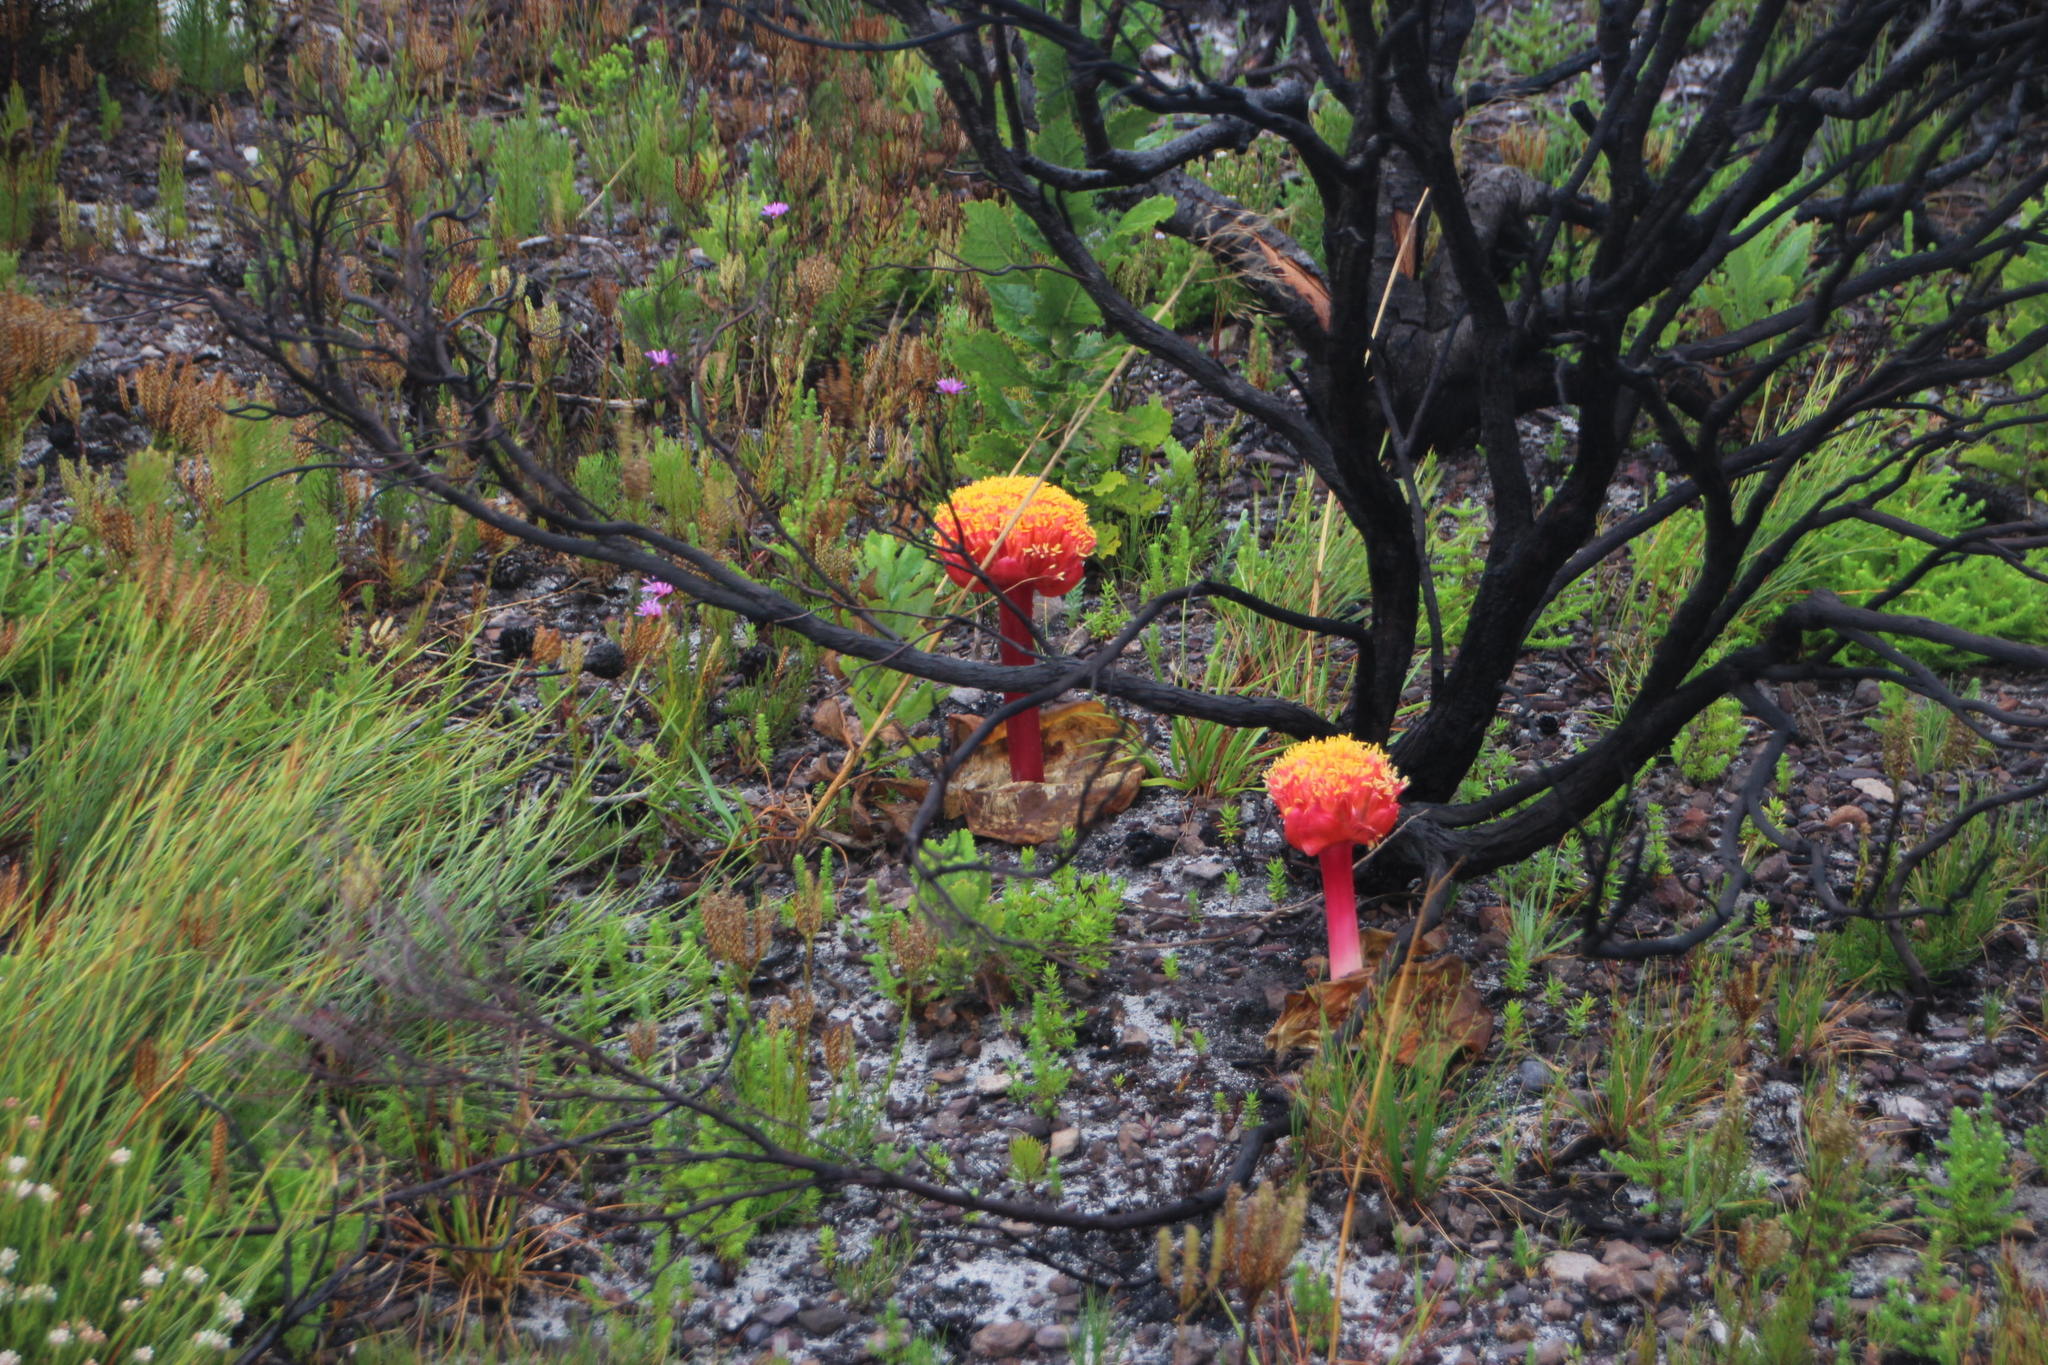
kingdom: Plantae
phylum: Tracheophyta
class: Liliopsida
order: Asparagales
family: Amaryllidaceae
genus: Haemanthus
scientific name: Haemanthus sanguineus
